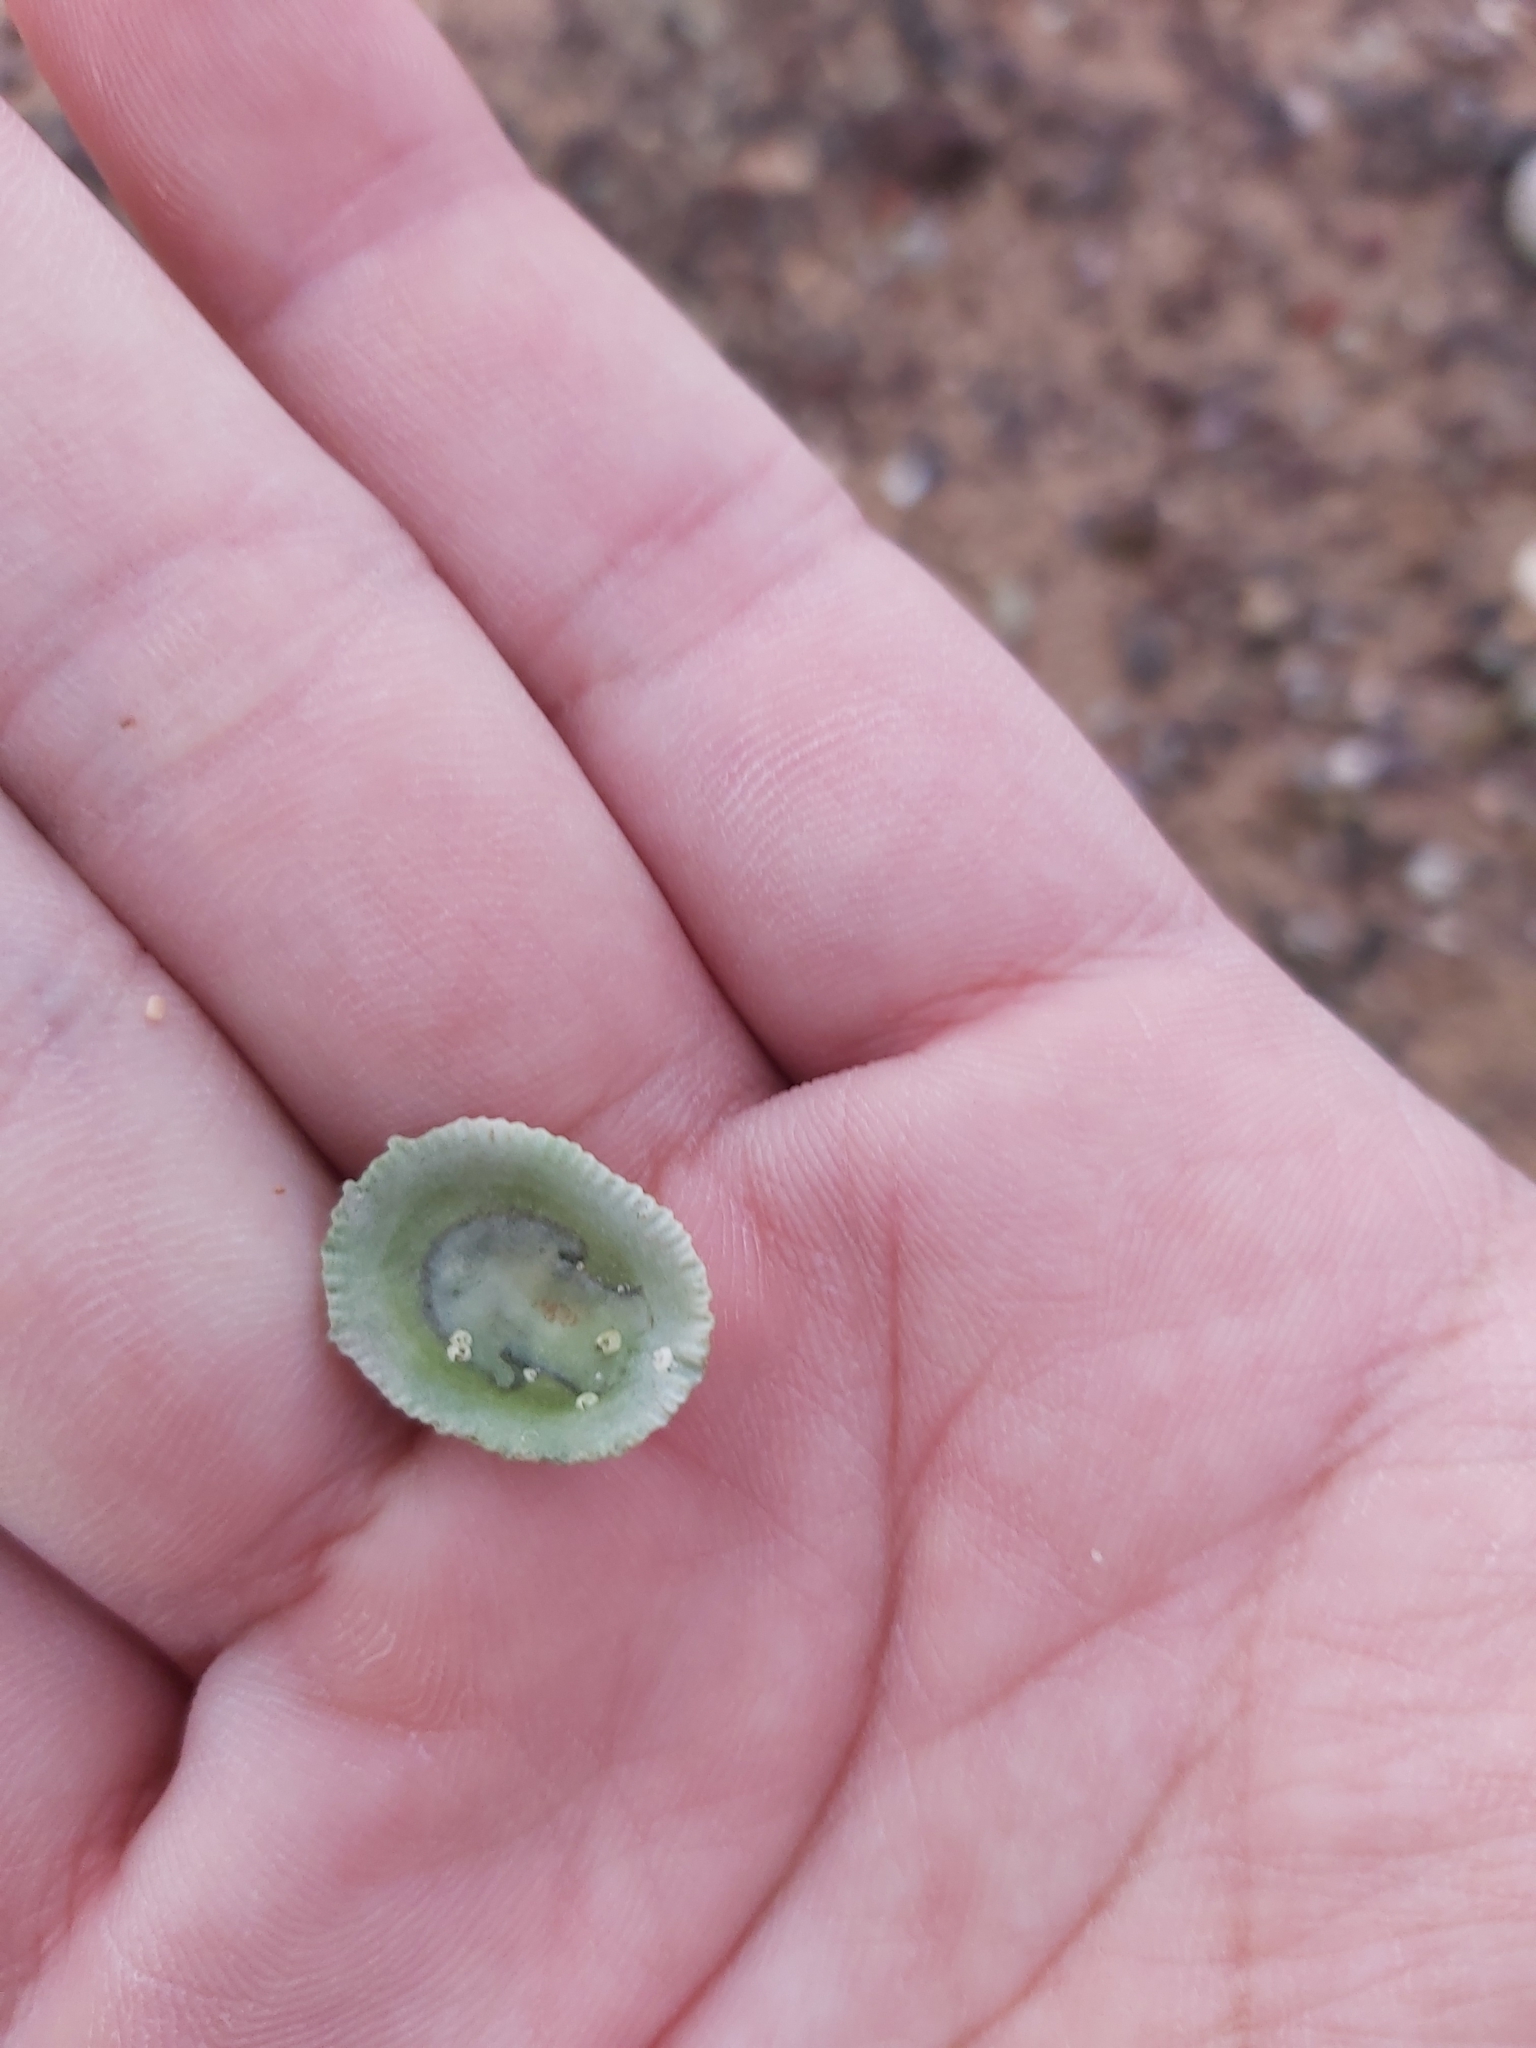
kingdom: Animalia
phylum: Mollusca
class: Gastropoda
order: Lepetellida
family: Fissurellidae
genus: Montfortula
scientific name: Montfortula rugosa
